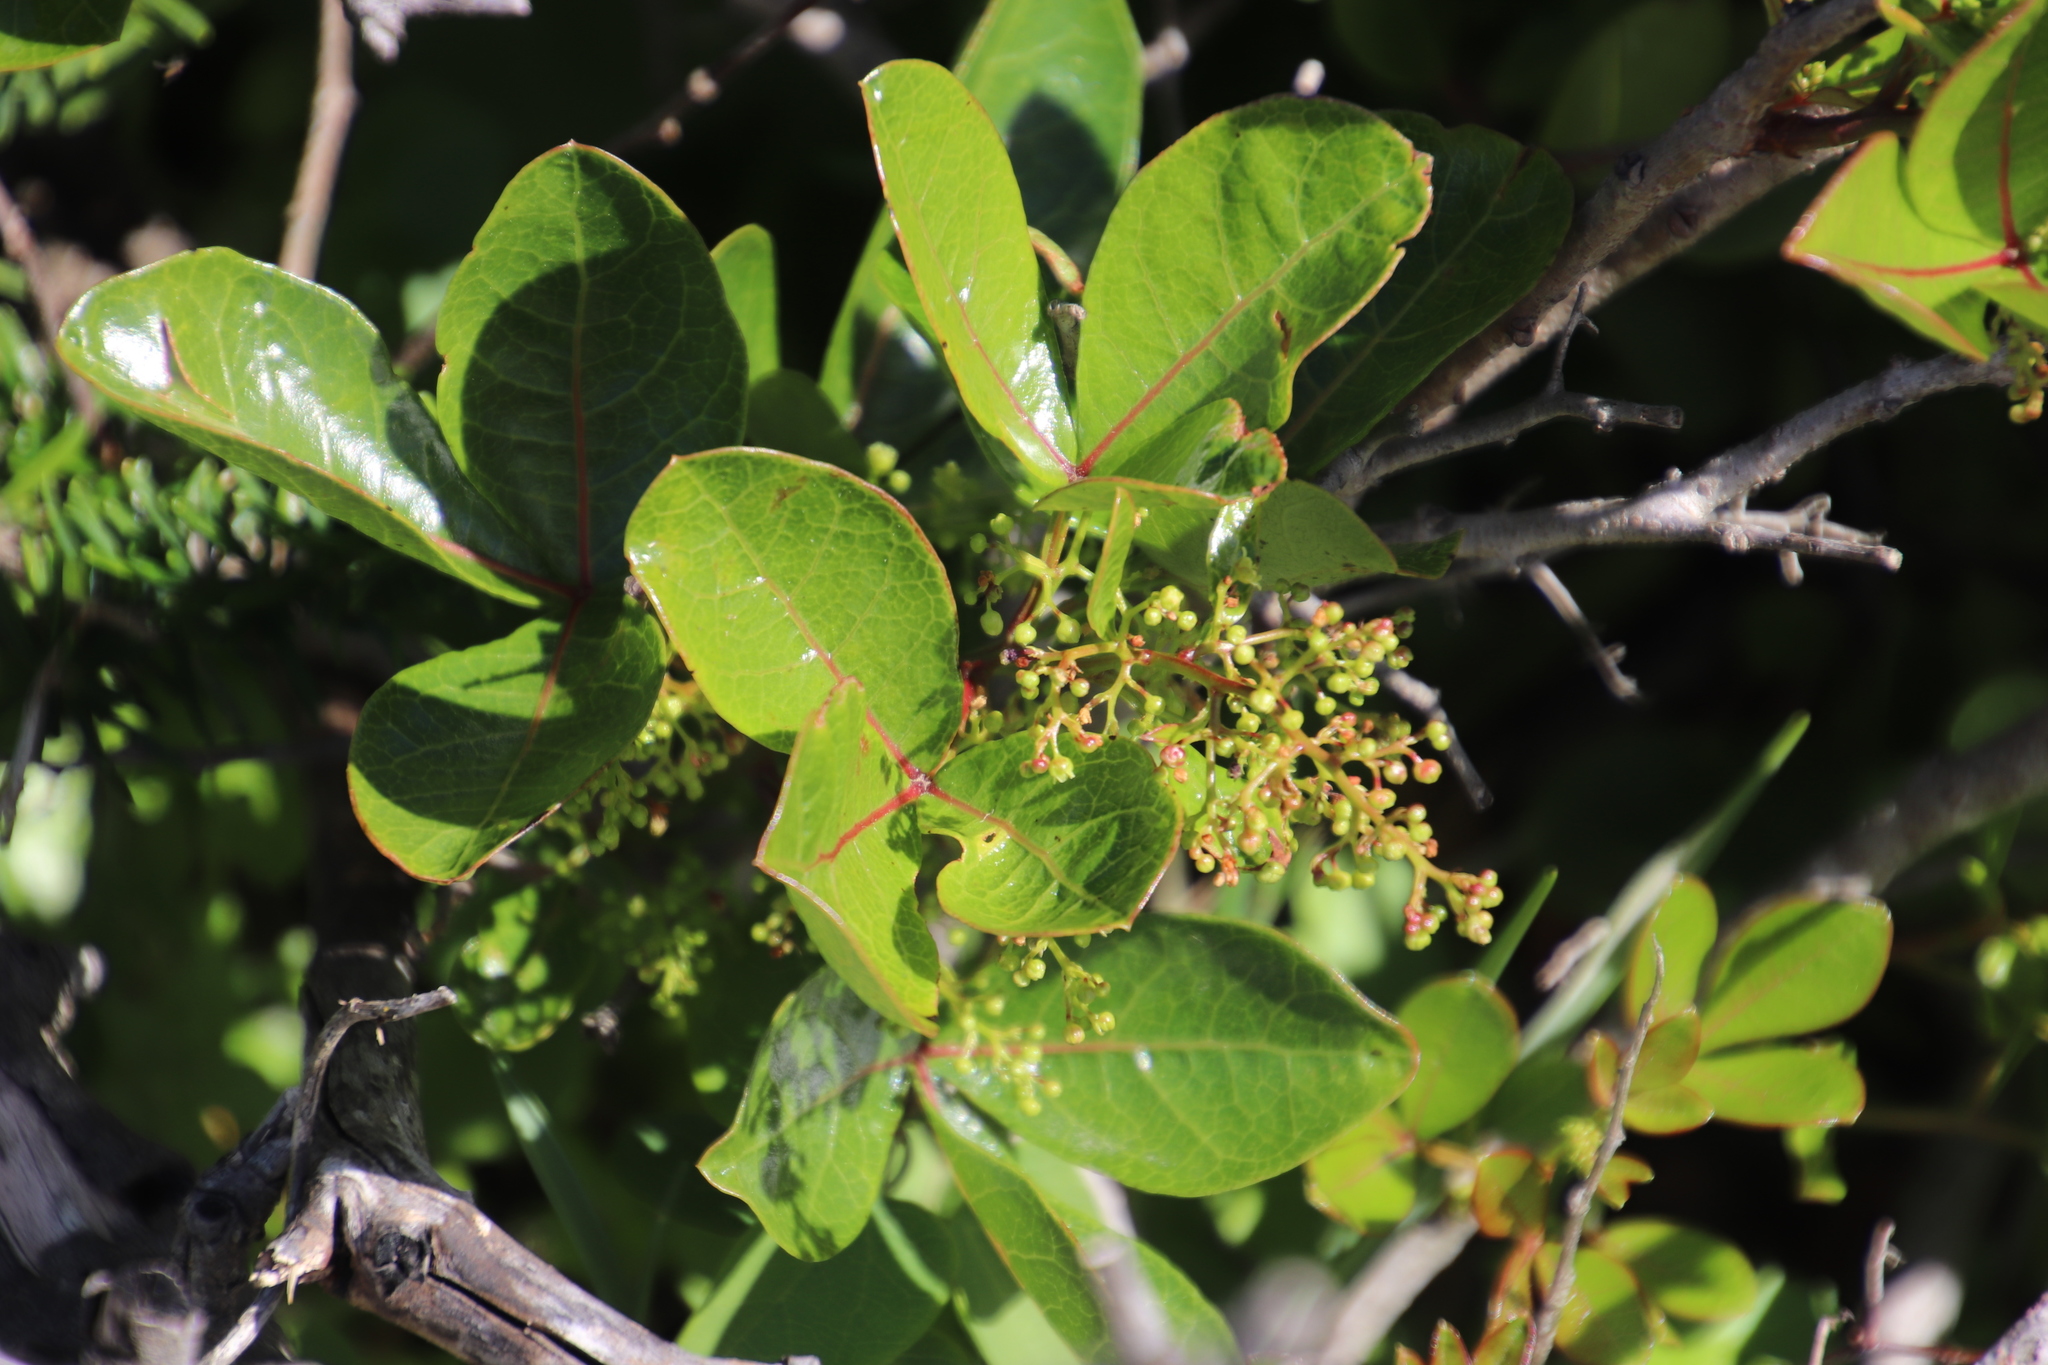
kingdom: Plantae
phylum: Tracheophyta
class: Magnoliopsida
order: Sapindales
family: Anacardiaceae
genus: Searsia
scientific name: Searsia laevigata
